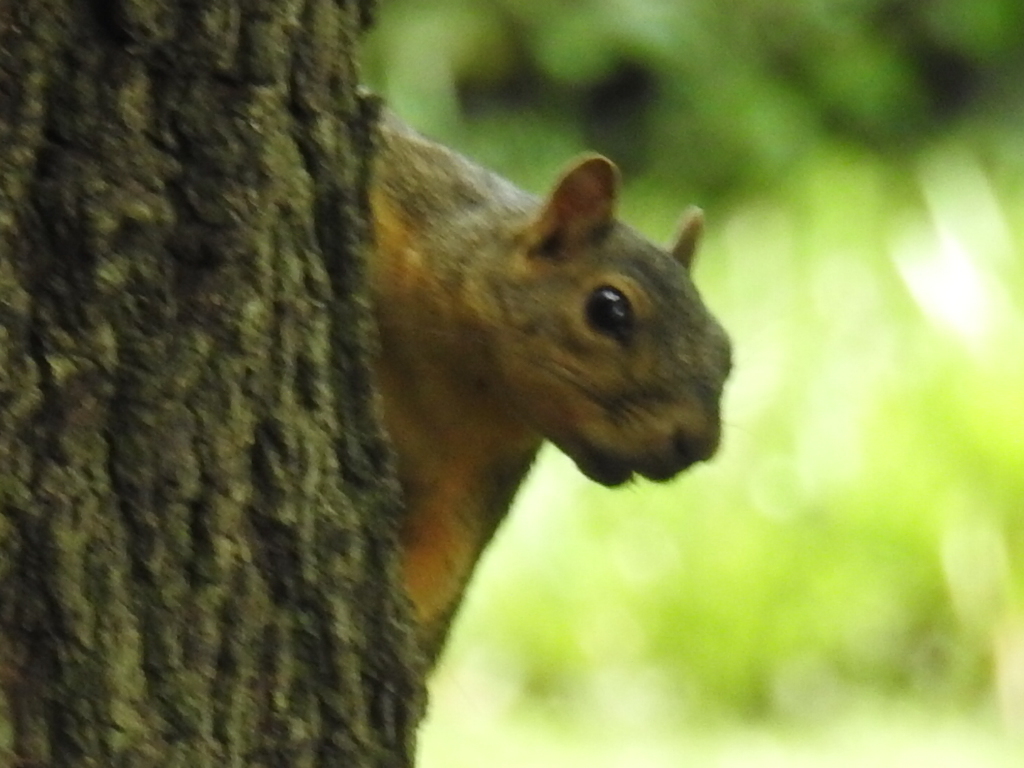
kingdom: Animalia
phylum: Chordata
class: Mammalia
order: Rodentia
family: Sciuridae
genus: Sciurus
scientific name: Sciurus niger
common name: Fox squirrel
